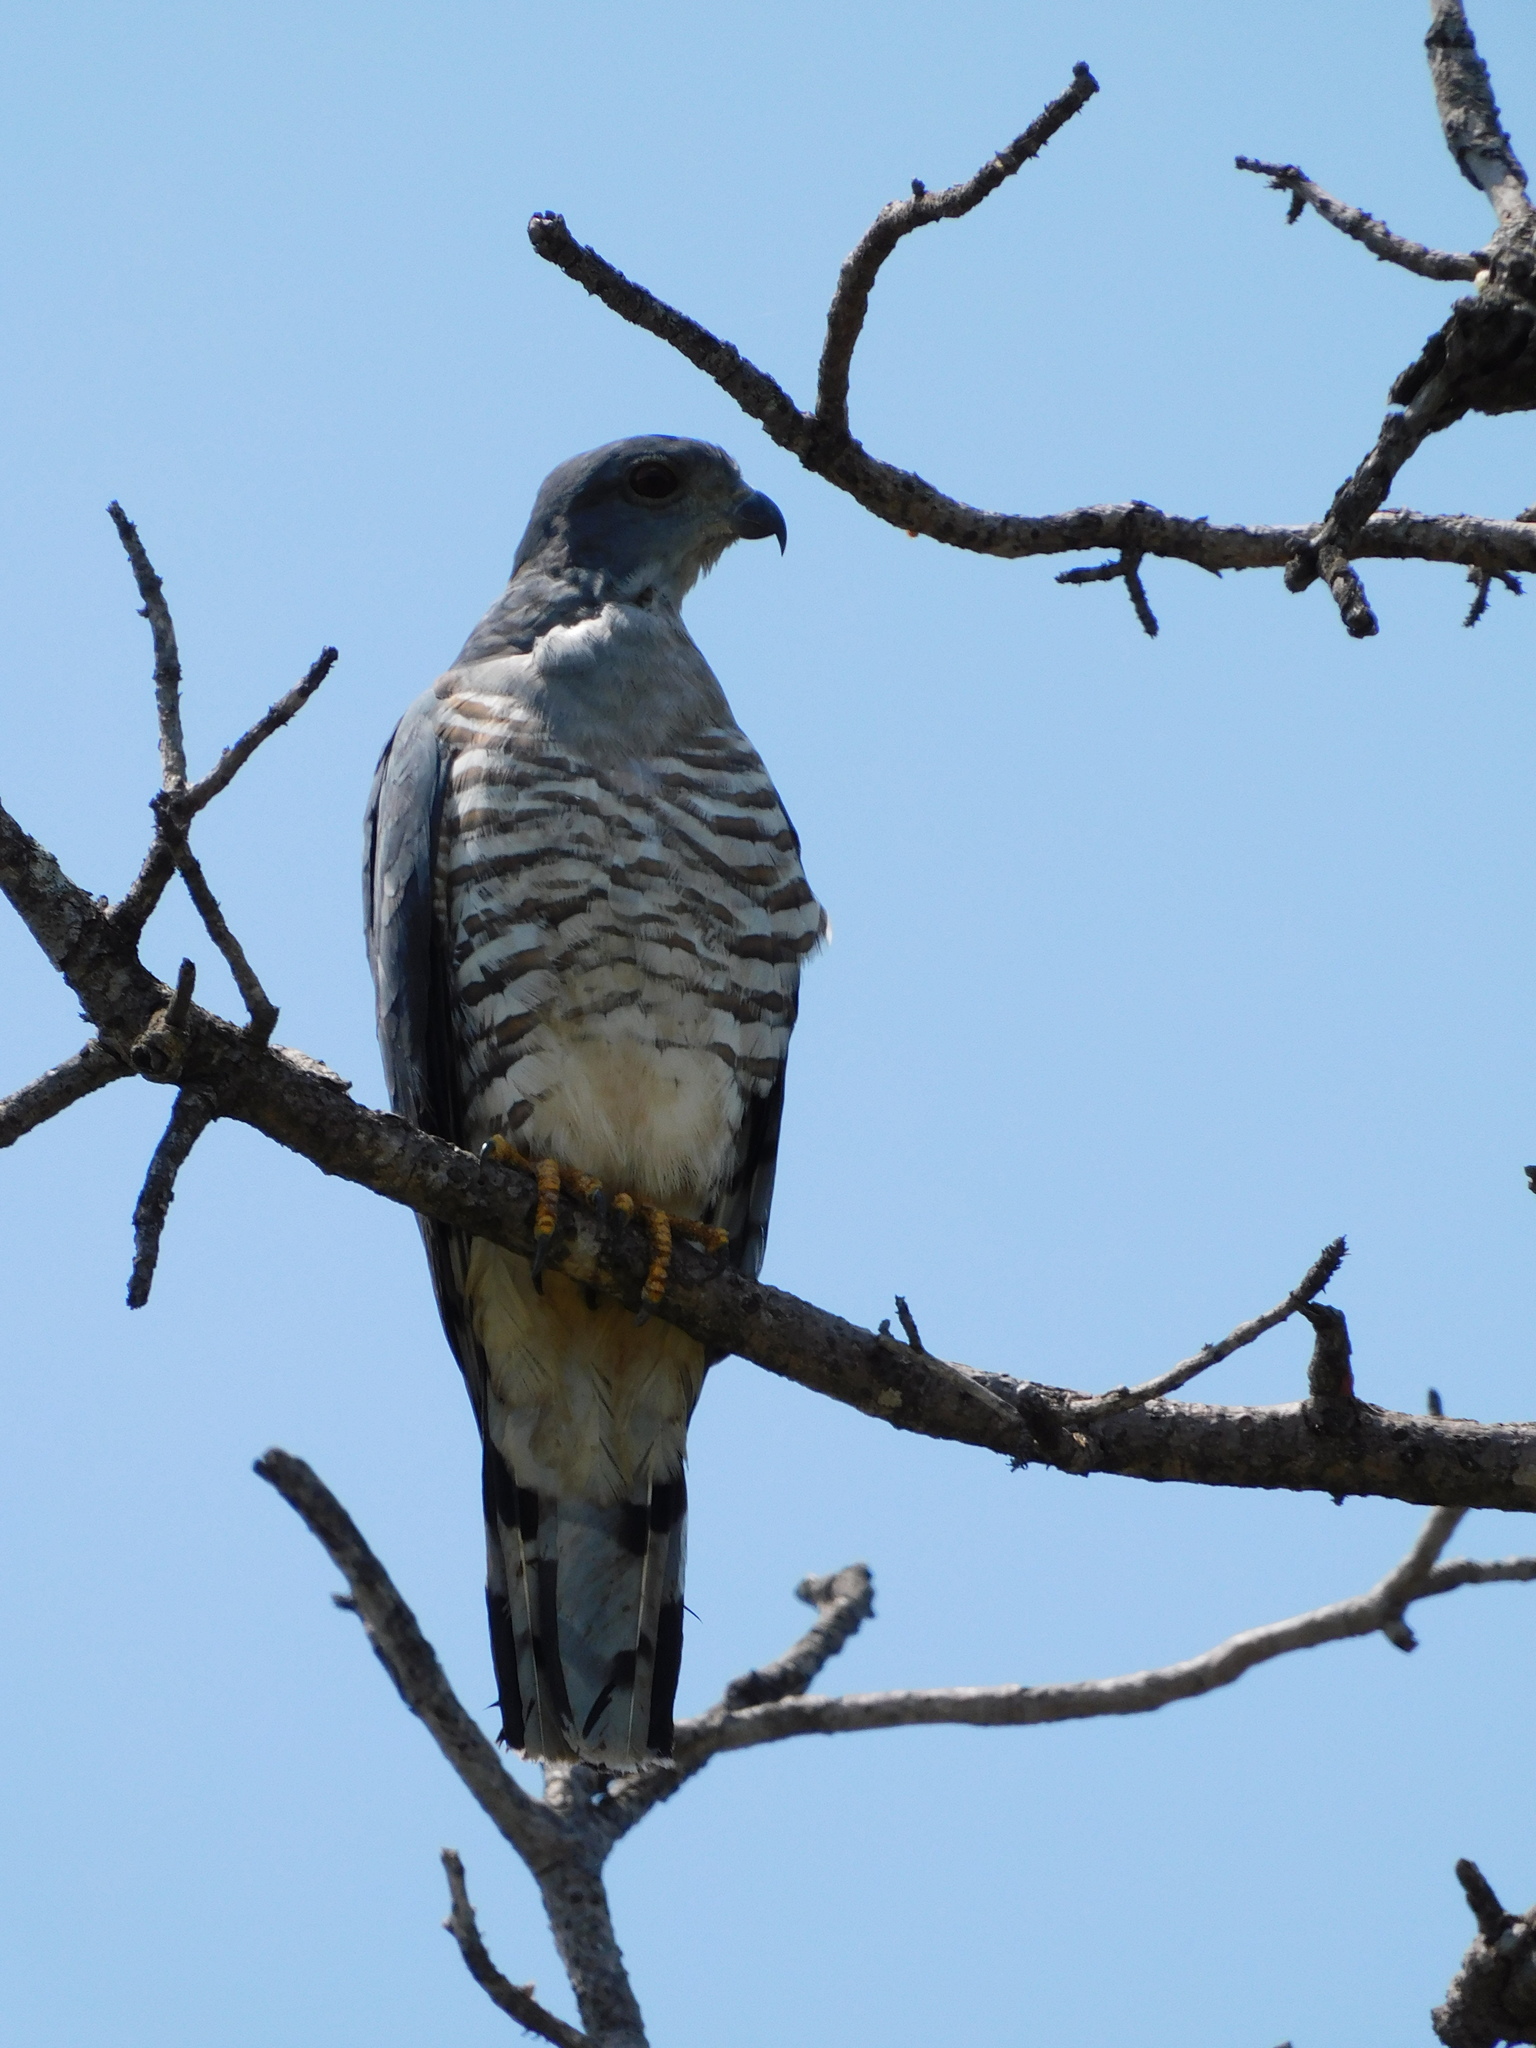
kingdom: Animalia
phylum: Chordata
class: Aves
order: Accipitriformes
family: Accipitridae
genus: Aviceda
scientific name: Aviceda cuculoides
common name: African cuckoo-hawk
